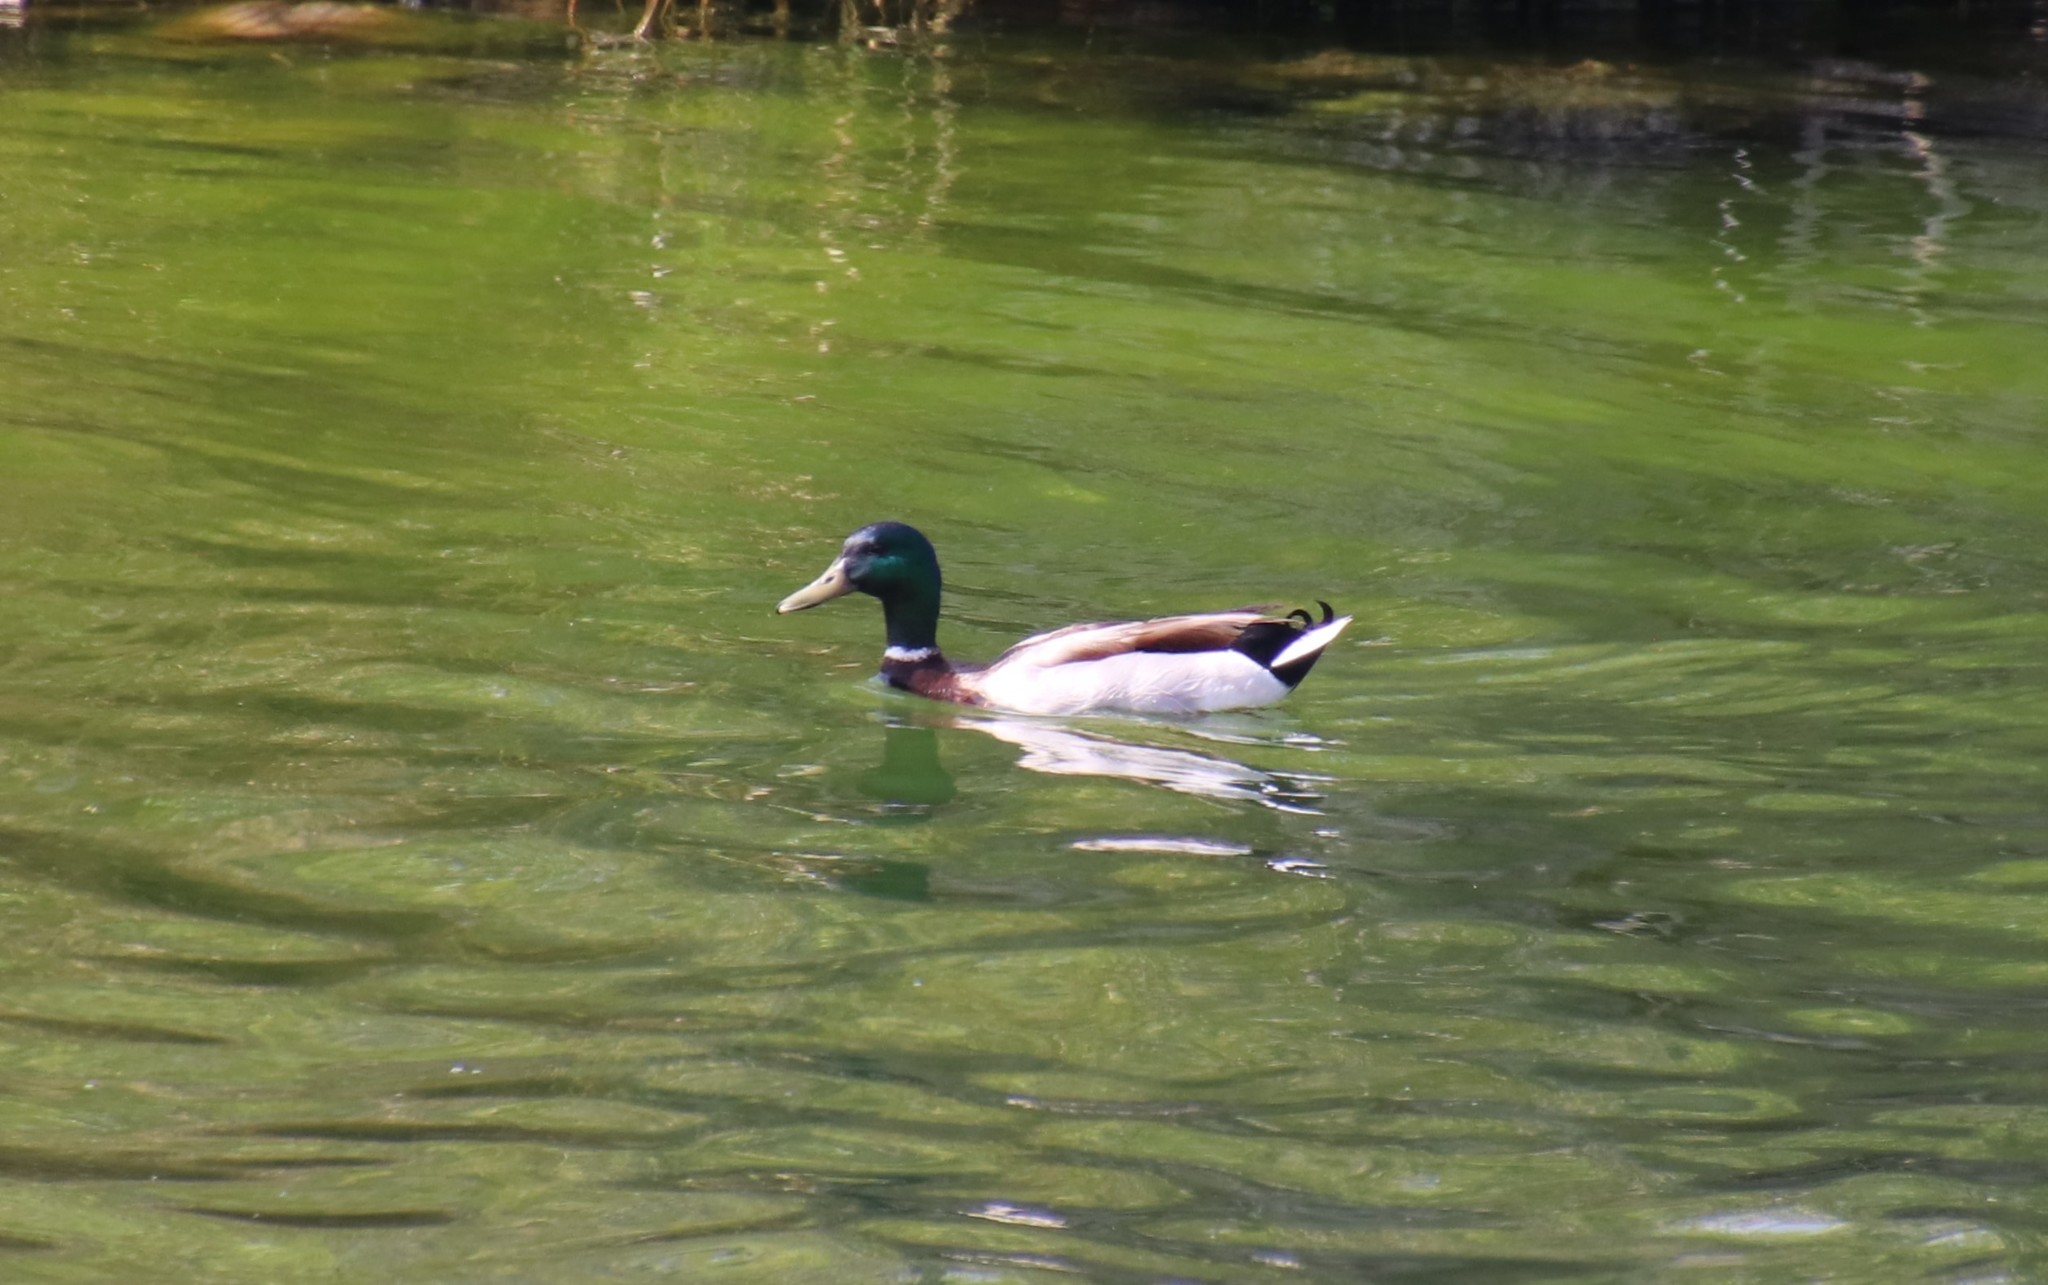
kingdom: Animalia
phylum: Chordata
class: Aves
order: Anseriformes
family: Anatidae
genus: Anas
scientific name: Anas platyrhynchos
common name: Mallard
